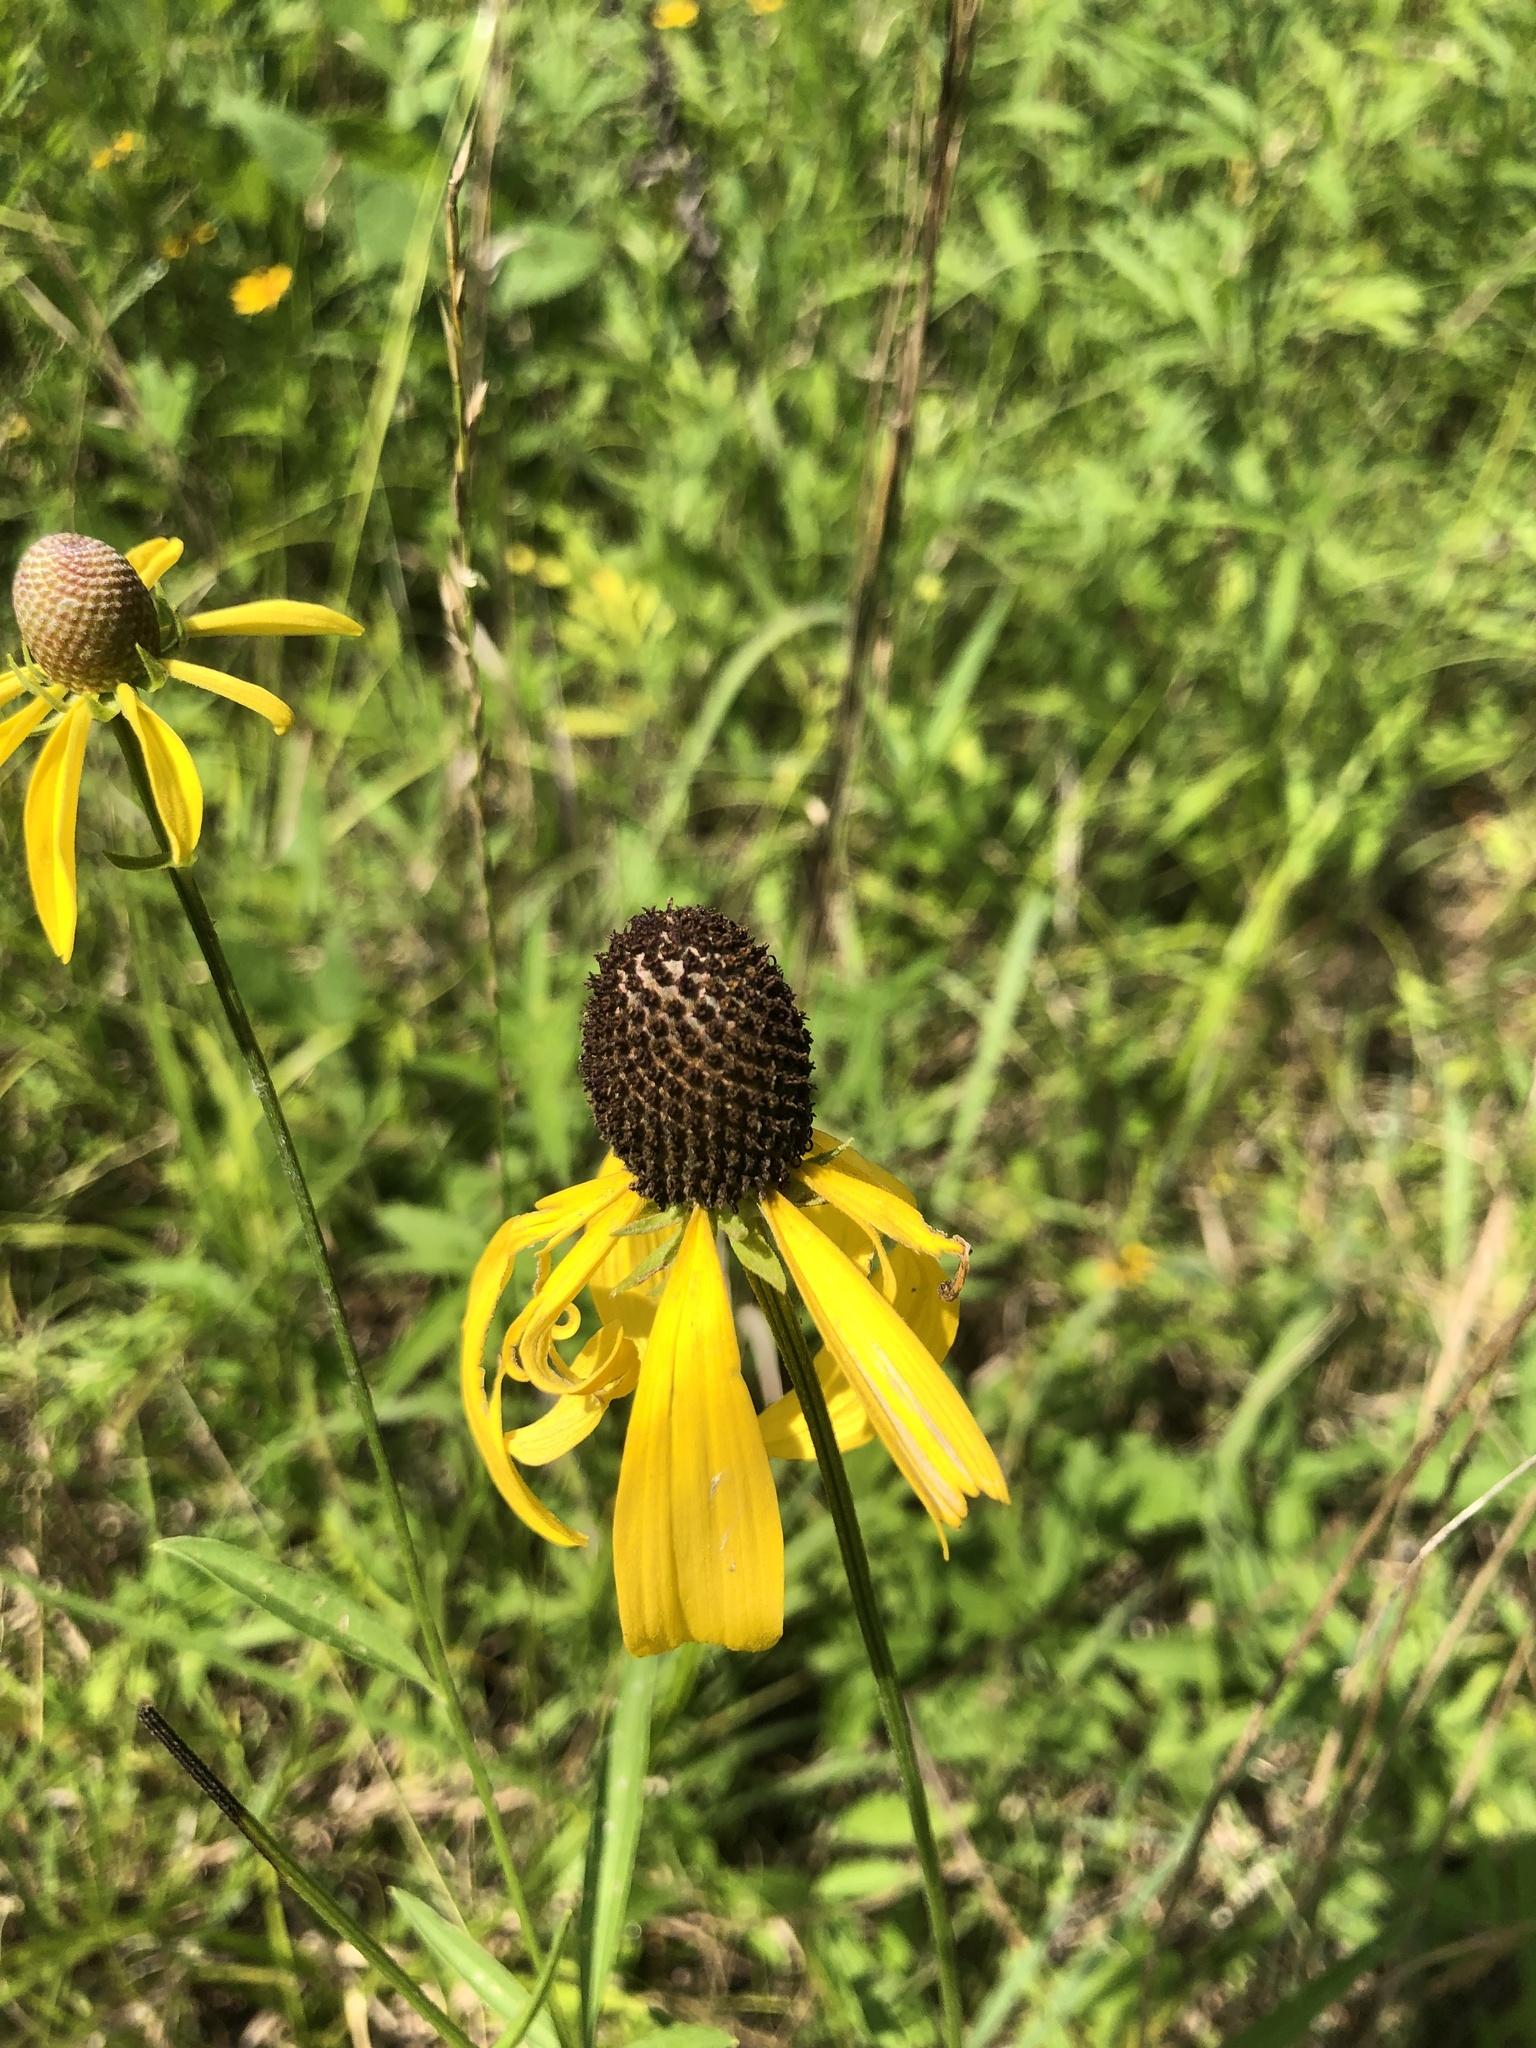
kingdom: Plantae
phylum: Tracheophyta
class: Magnoliopsida
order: Asterales
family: Asteraceae
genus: Ratibida
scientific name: Ratibida pinnata
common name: Drooping prairie-coneflower
